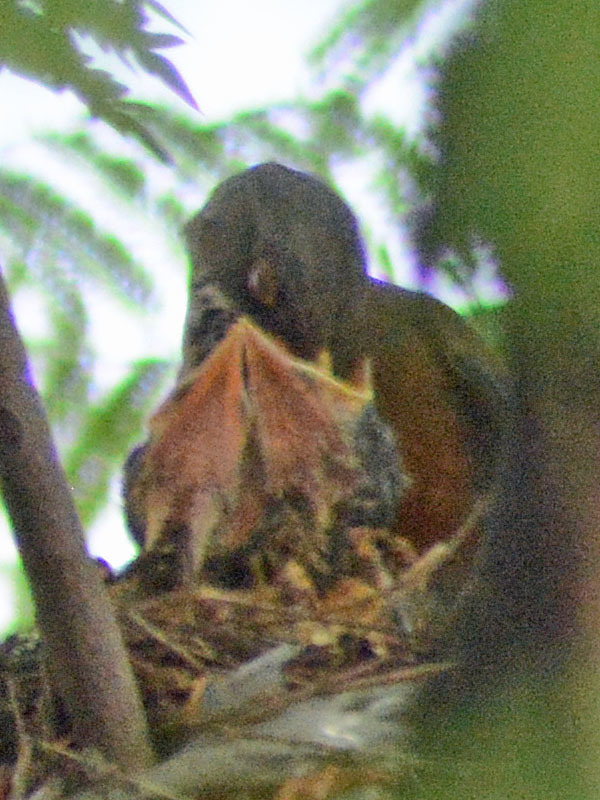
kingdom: Animalia
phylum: Chordata
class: Aves
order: Passeriformes
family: Turdidae
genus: Turdus
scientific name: Turdus rufopalliatus
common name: Rufous-backed robin
